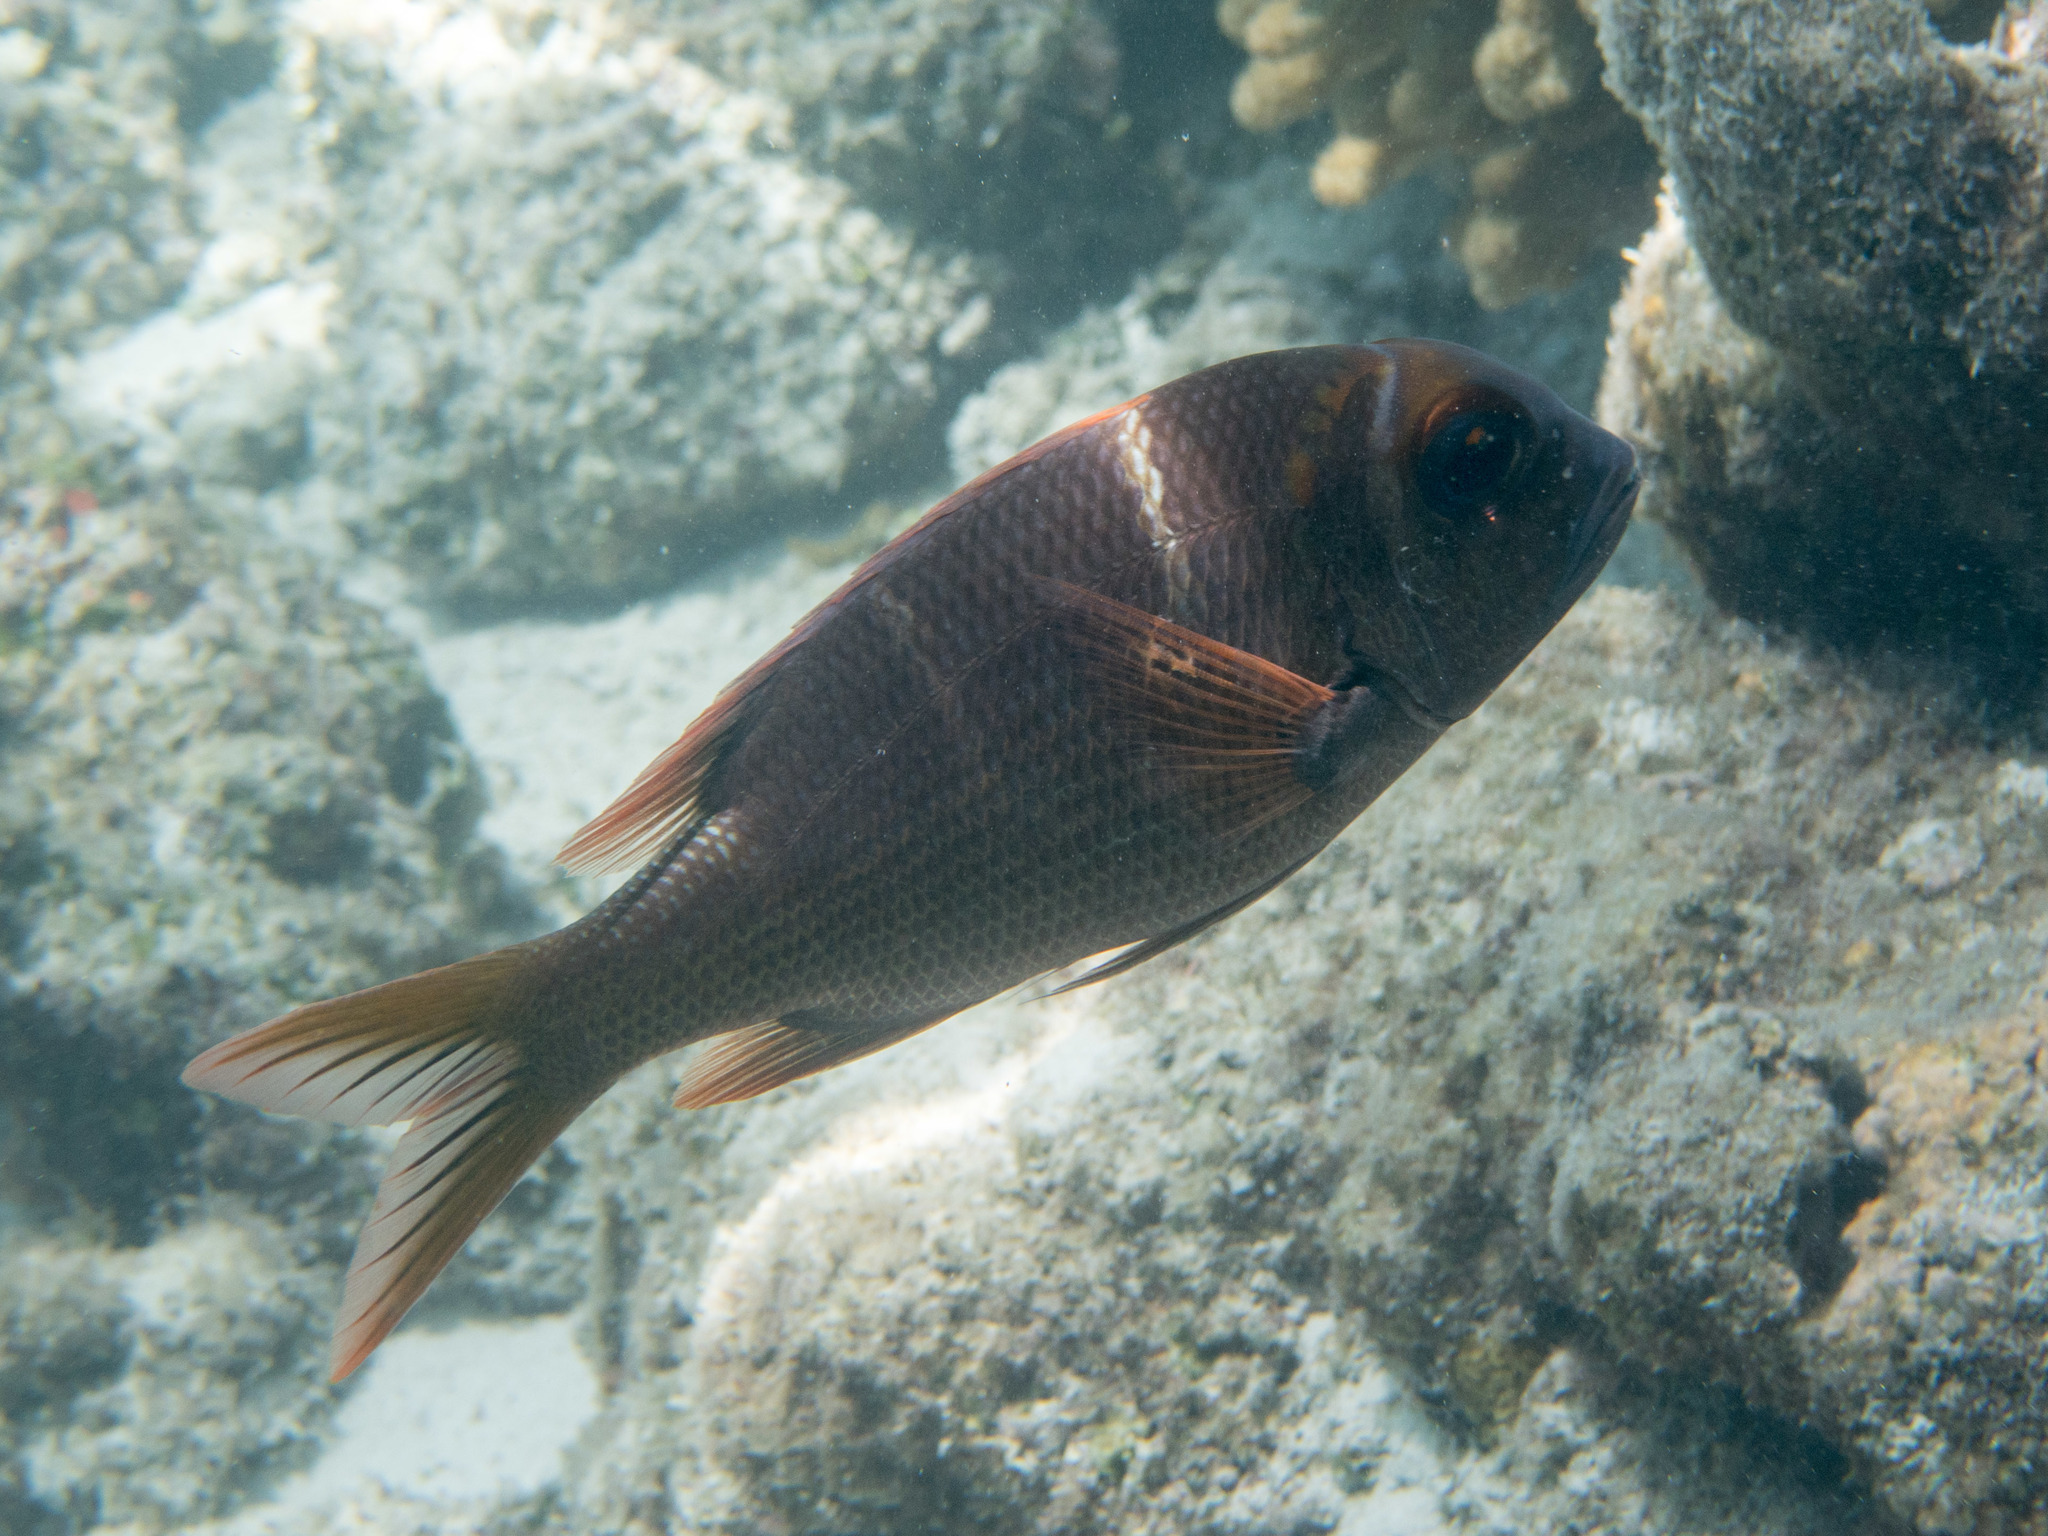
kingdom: Animalia
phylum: Chordata
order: Perciformes
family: Lethrinidae
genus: Monotaxis
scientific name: Monotaxis heterodon
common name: Redfin emperor
